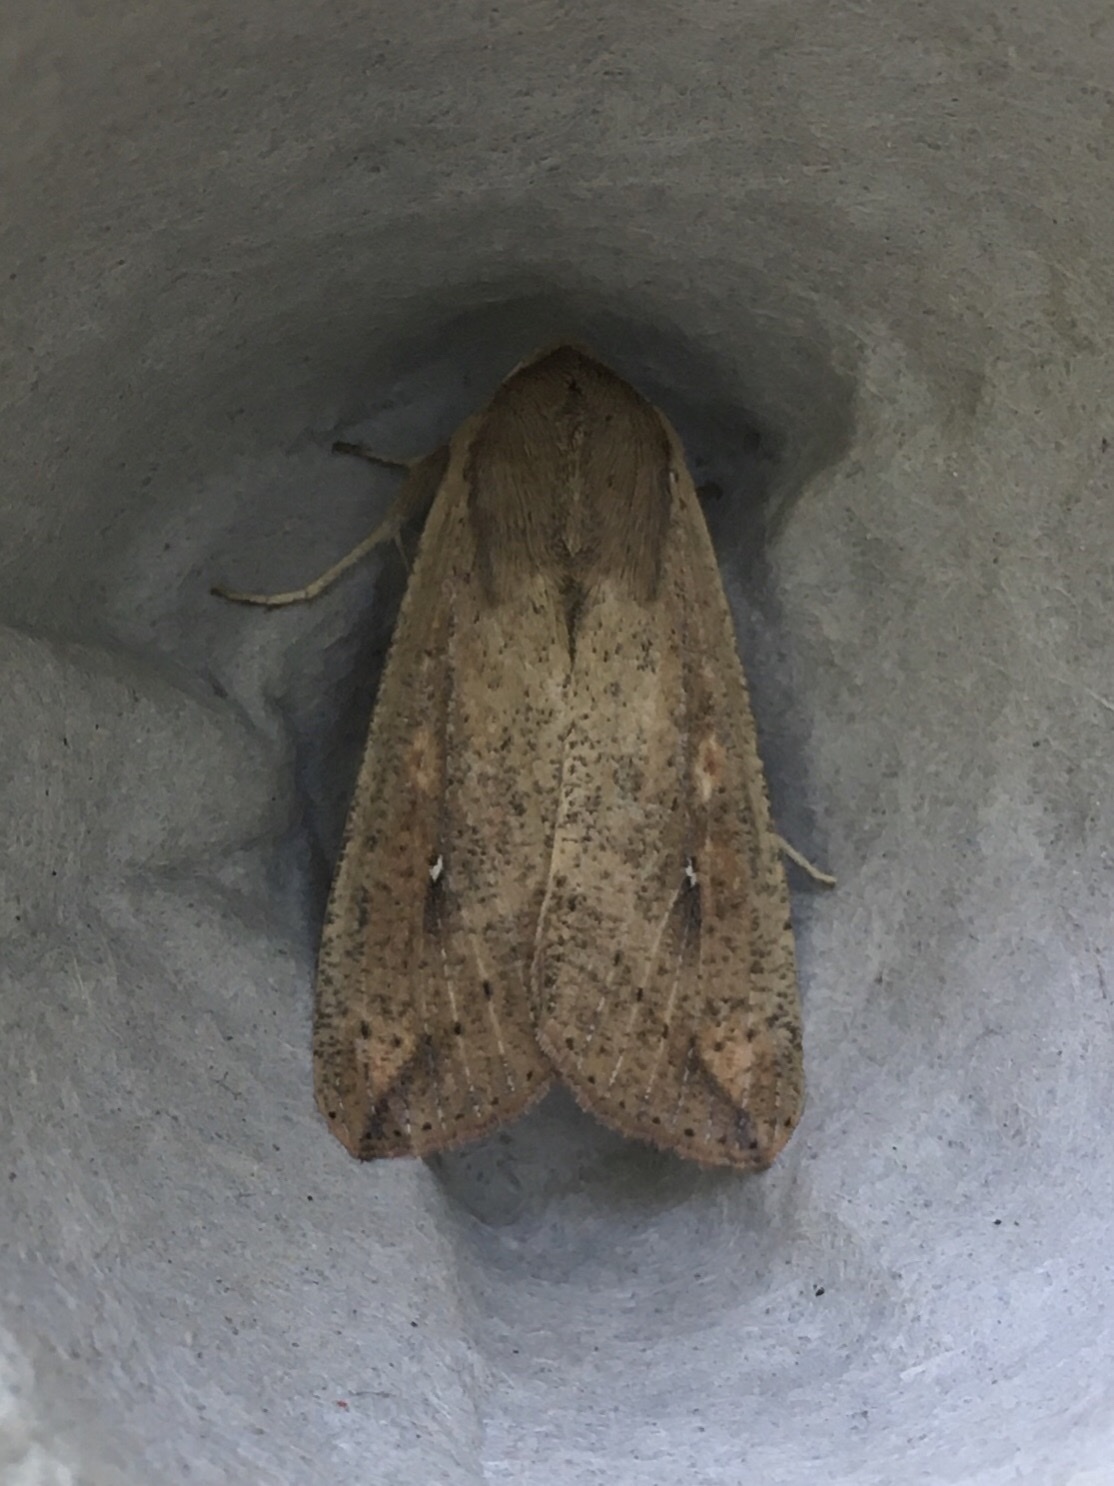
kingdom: Animalia
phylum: Arthropoda
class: Insecta
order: Lepidoptera
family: Noctuidae
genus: Mythimna
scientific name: Mythimna unipuncta
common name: White-speck
